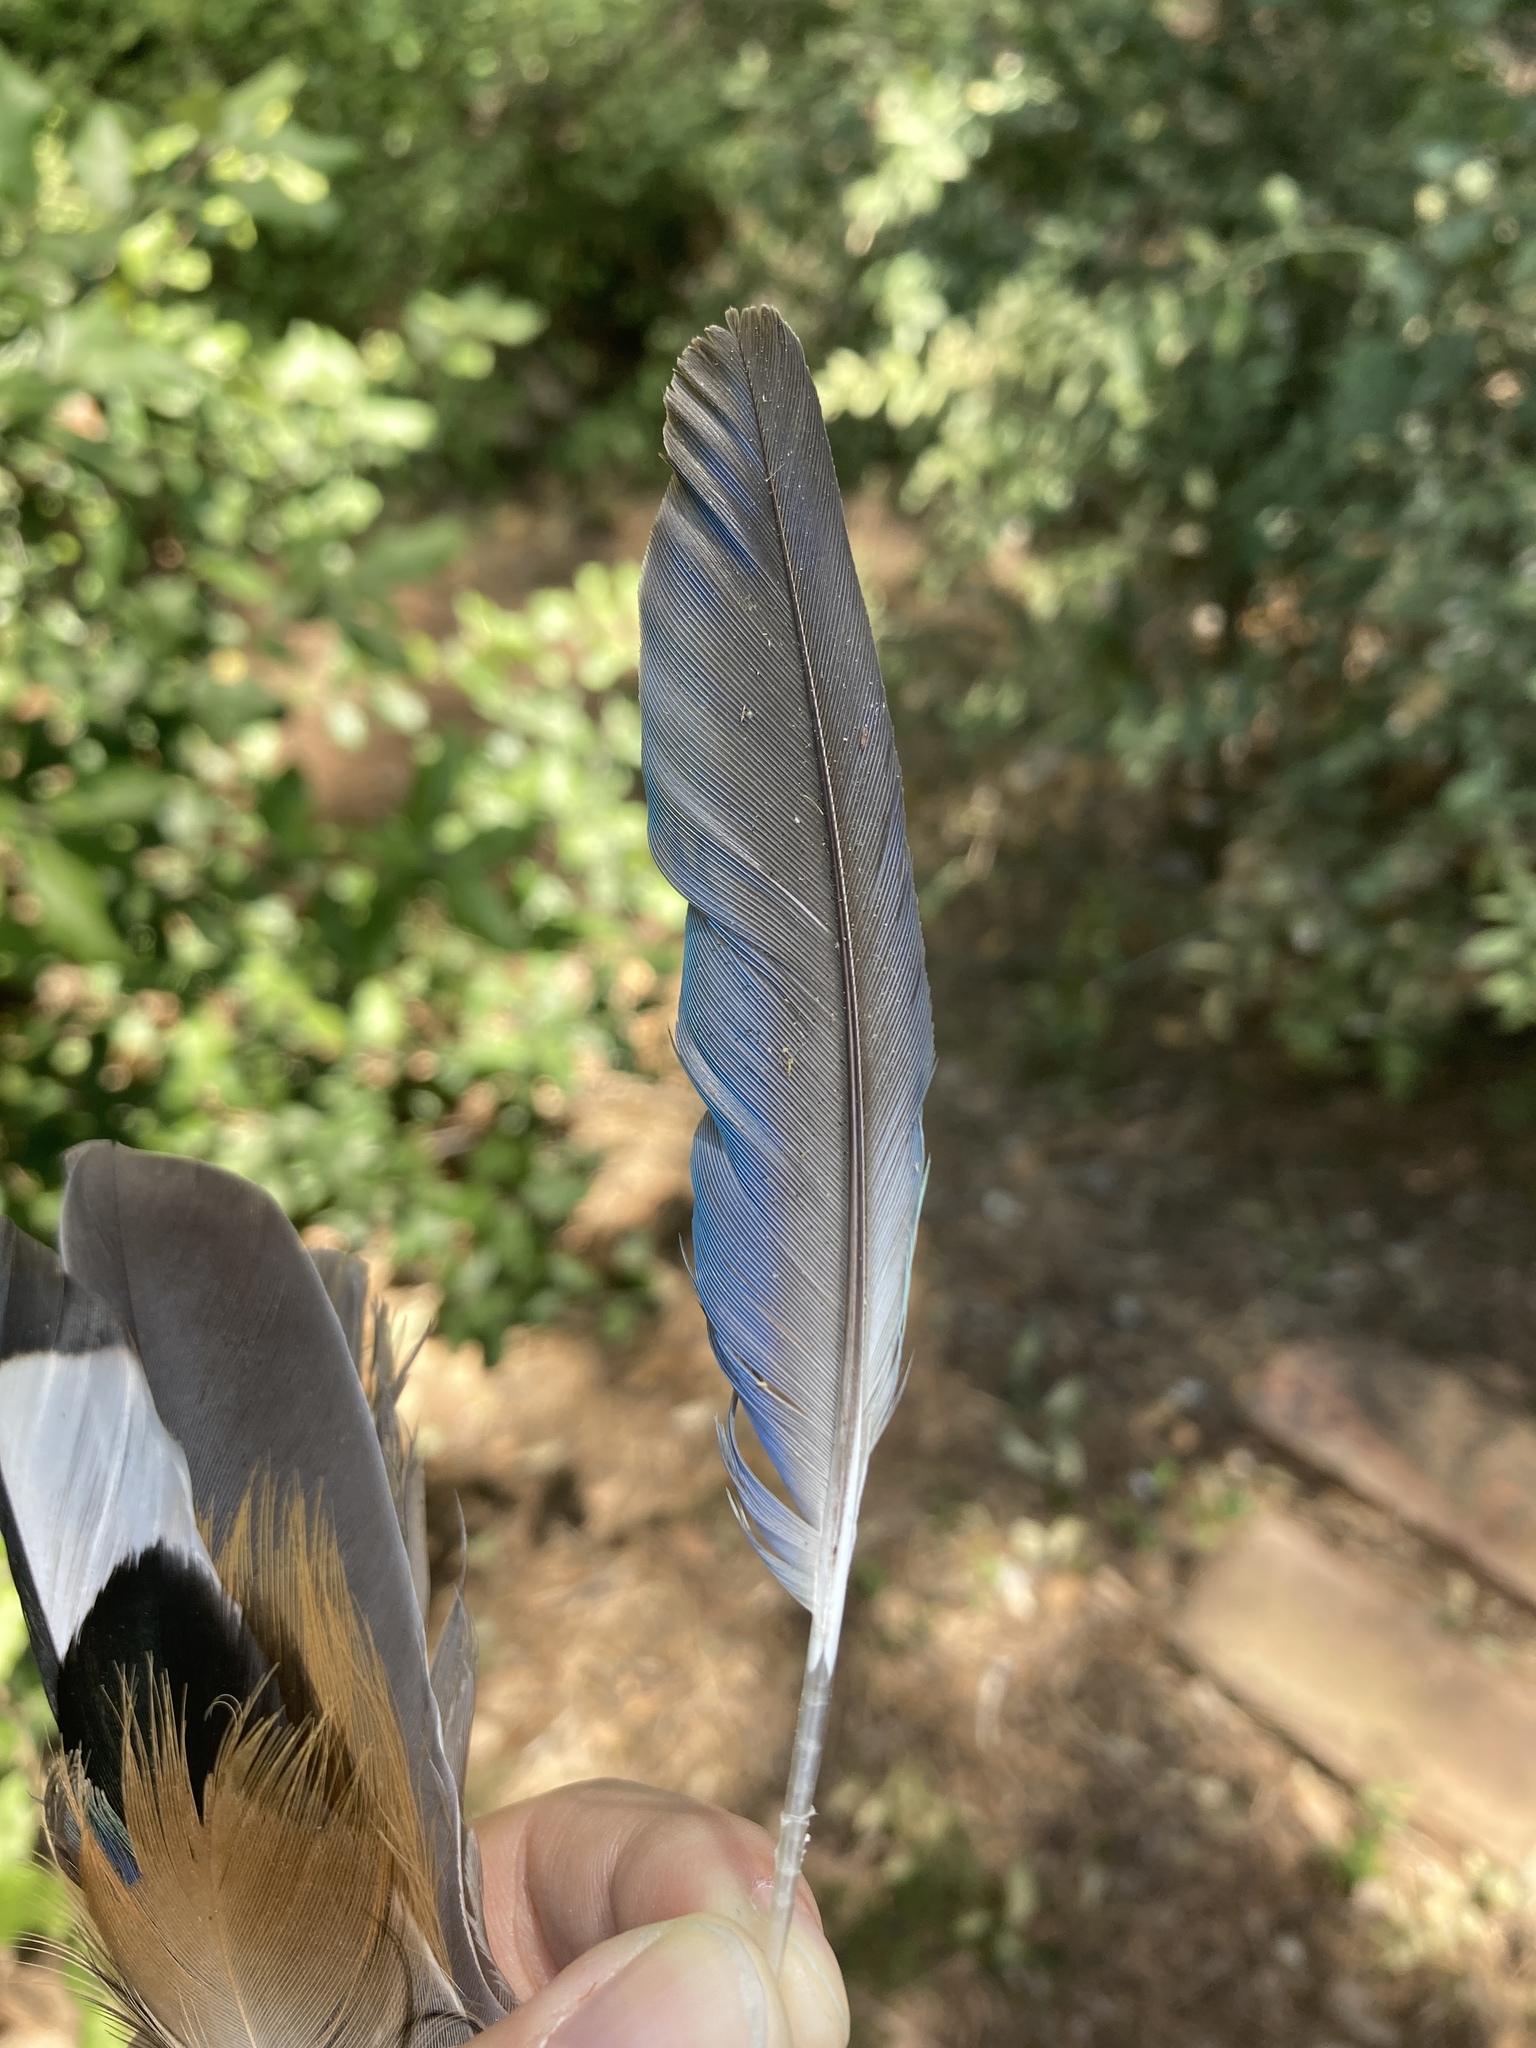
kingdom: Animalia
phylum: Chordata
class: Aves
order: Psittaciformes
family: Psittacidae
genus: Myiopsitta
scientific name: Myiopsitta monachus
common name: Monk parakeet
